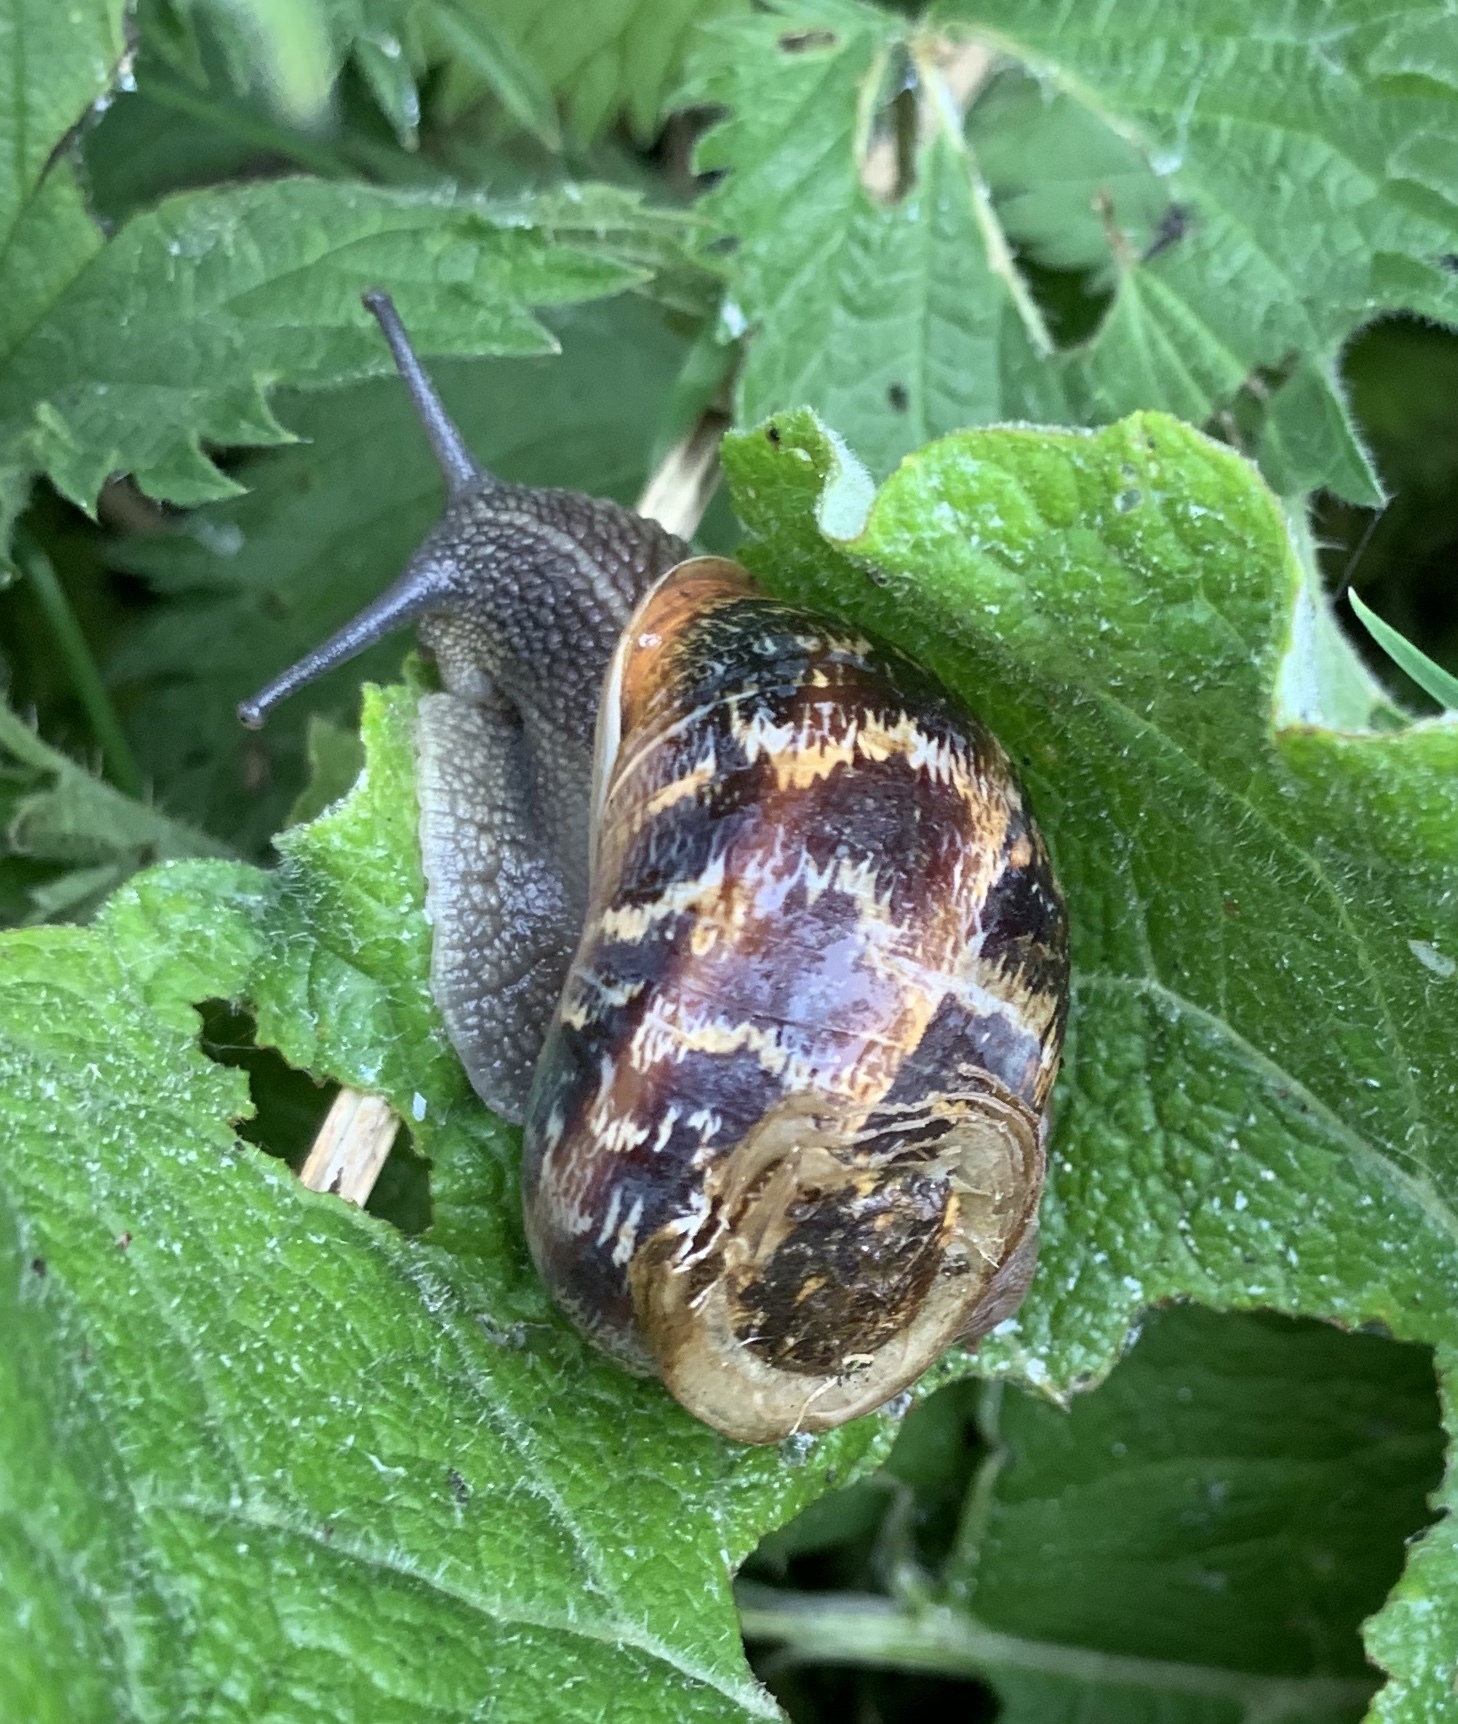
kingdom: Animalia
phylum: Mollusca
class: Gastropoda
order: Stylommatophora
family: Helicidae
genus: Cornu
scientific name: Cornu aspersum
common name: Brown garden snail
